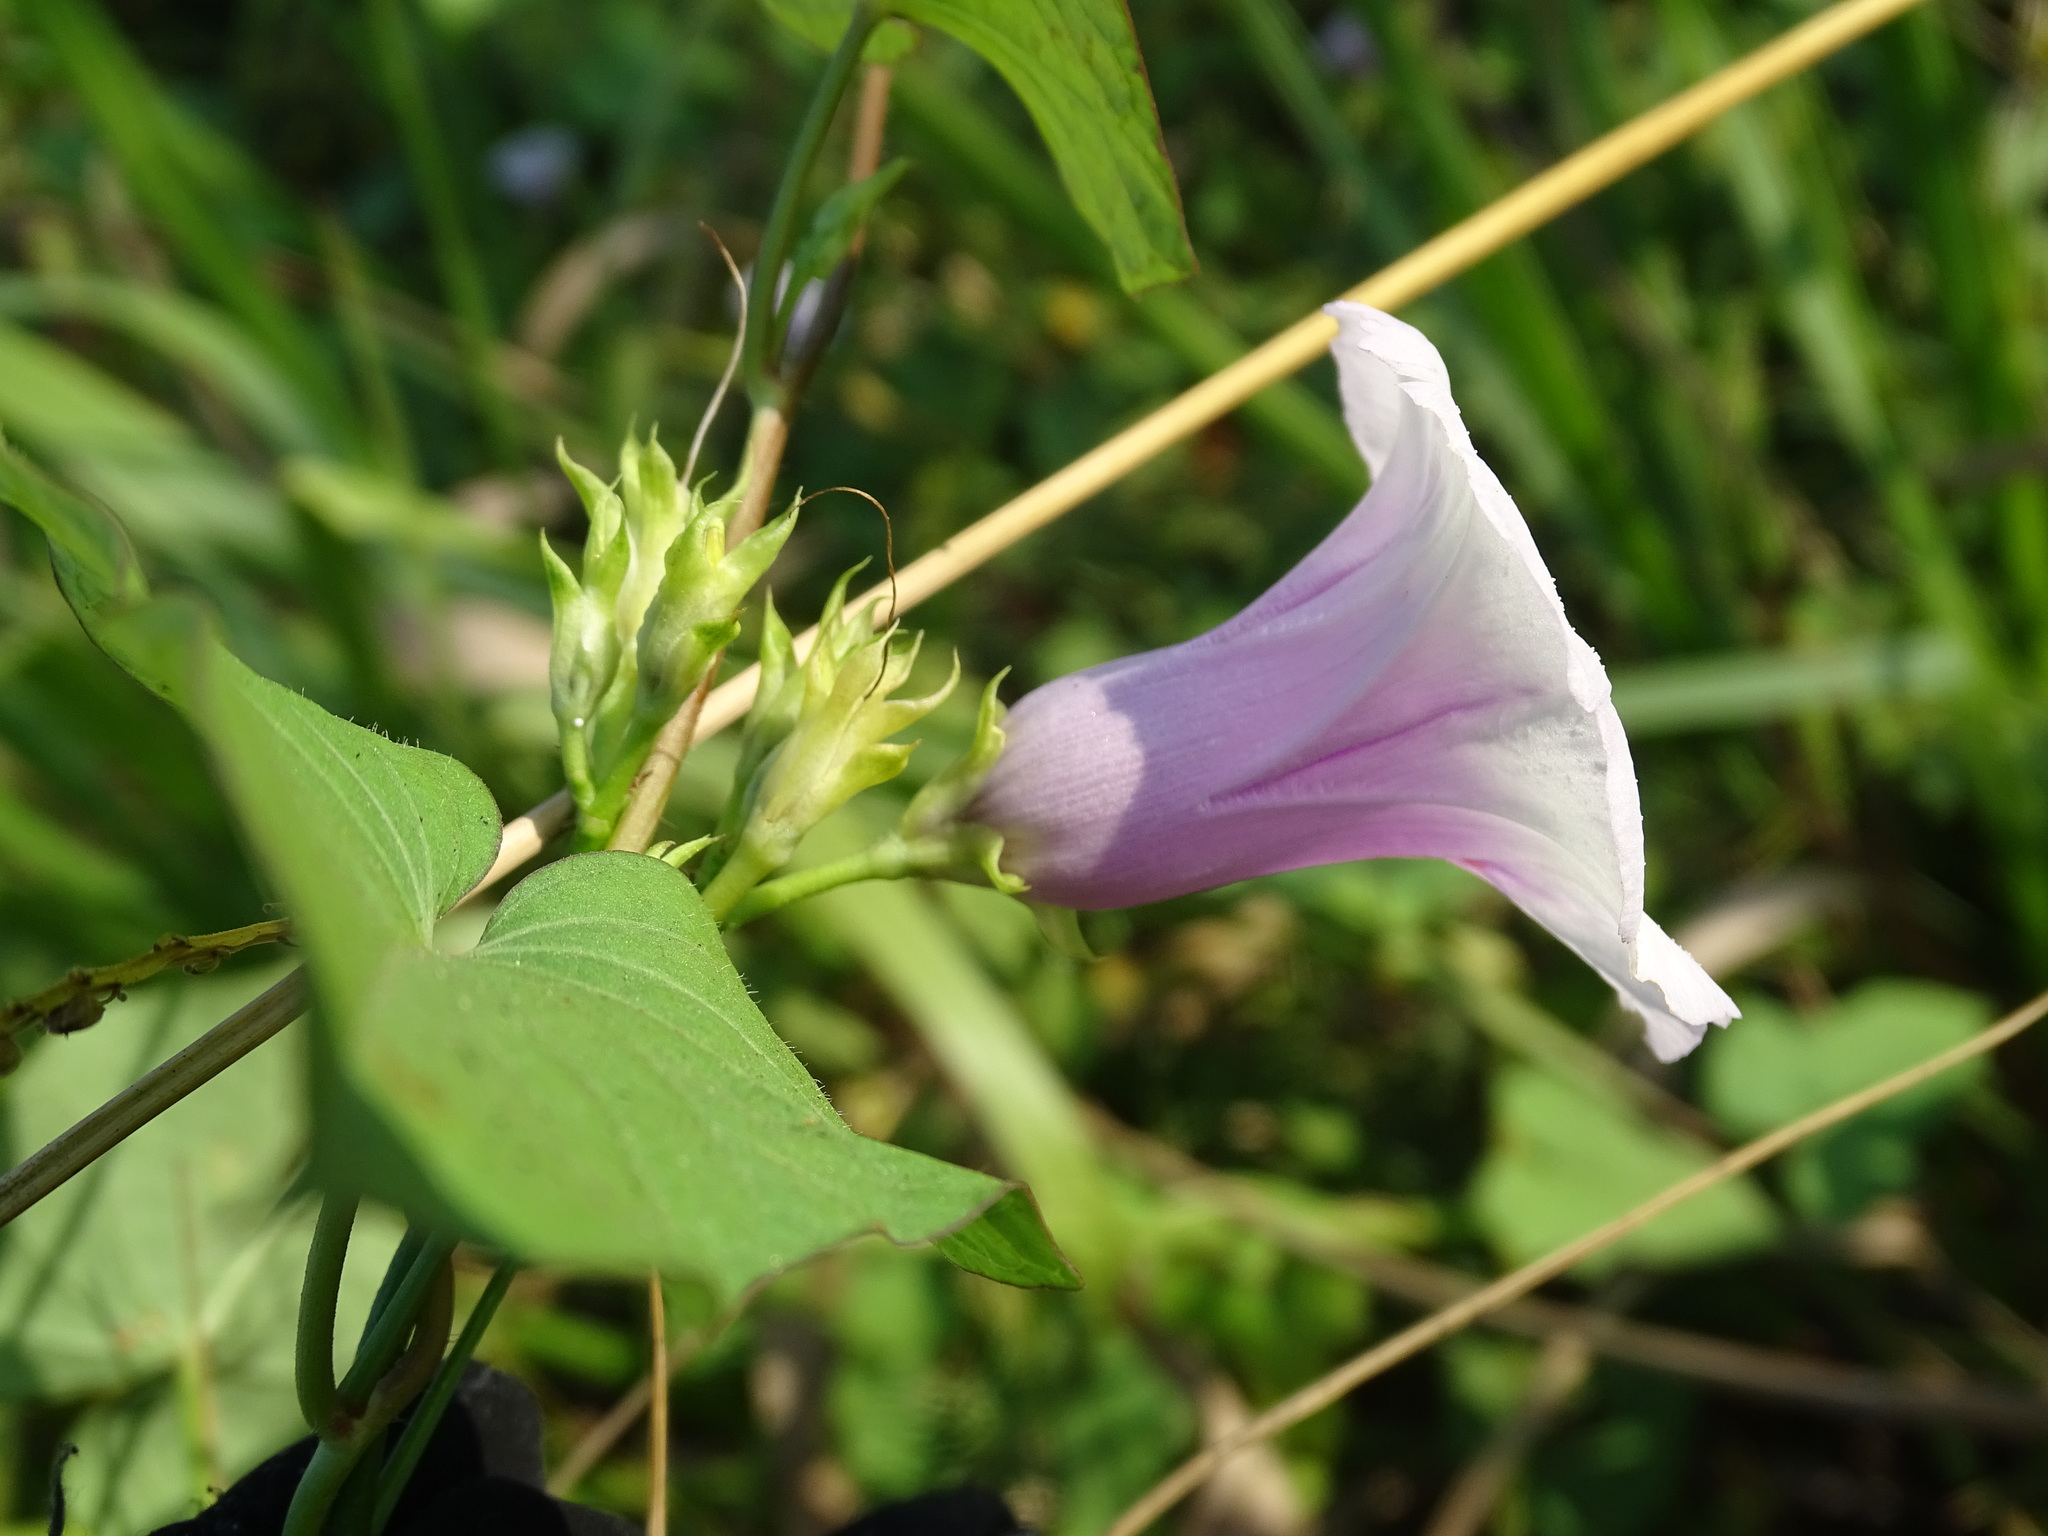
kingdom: Plantae
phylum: Tracheophyta
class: Magnoliopsida
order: Solanales
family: Convolvulaceae
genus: Ipomoea
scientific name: Ipomoea batatas
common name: Sweet-potato
